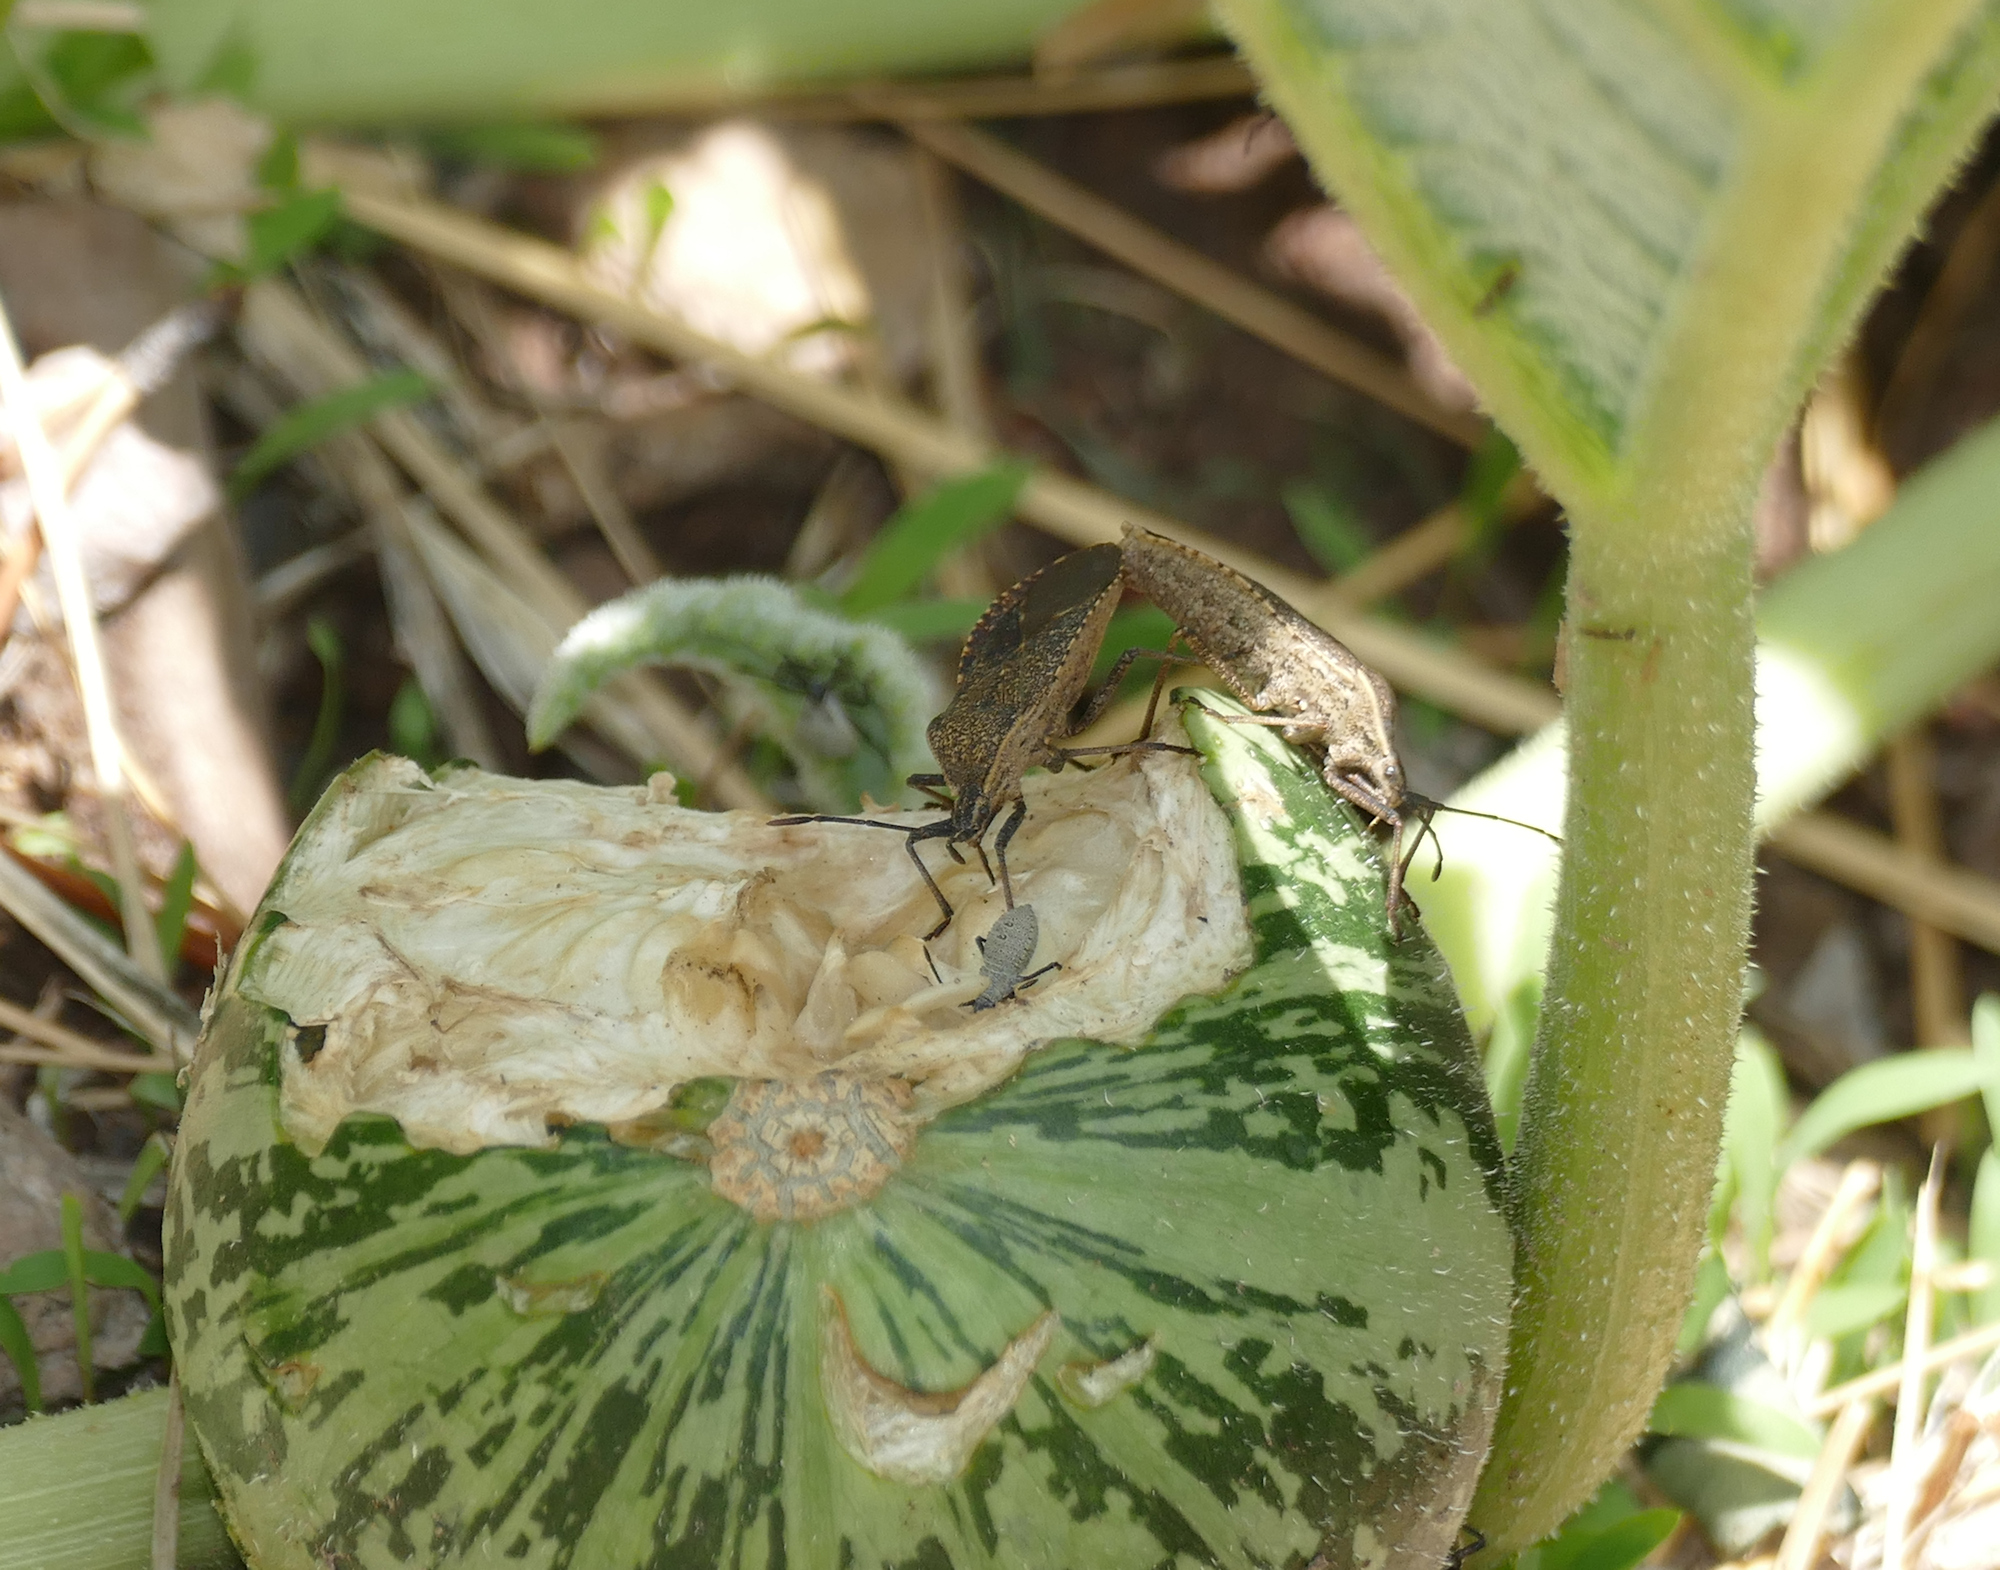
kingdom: Animalia
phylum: Arthropoda
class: Insecta
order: Hemiptera
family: Coreidae
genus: Anasa
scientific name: Anasa tristis
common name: Squash bug
